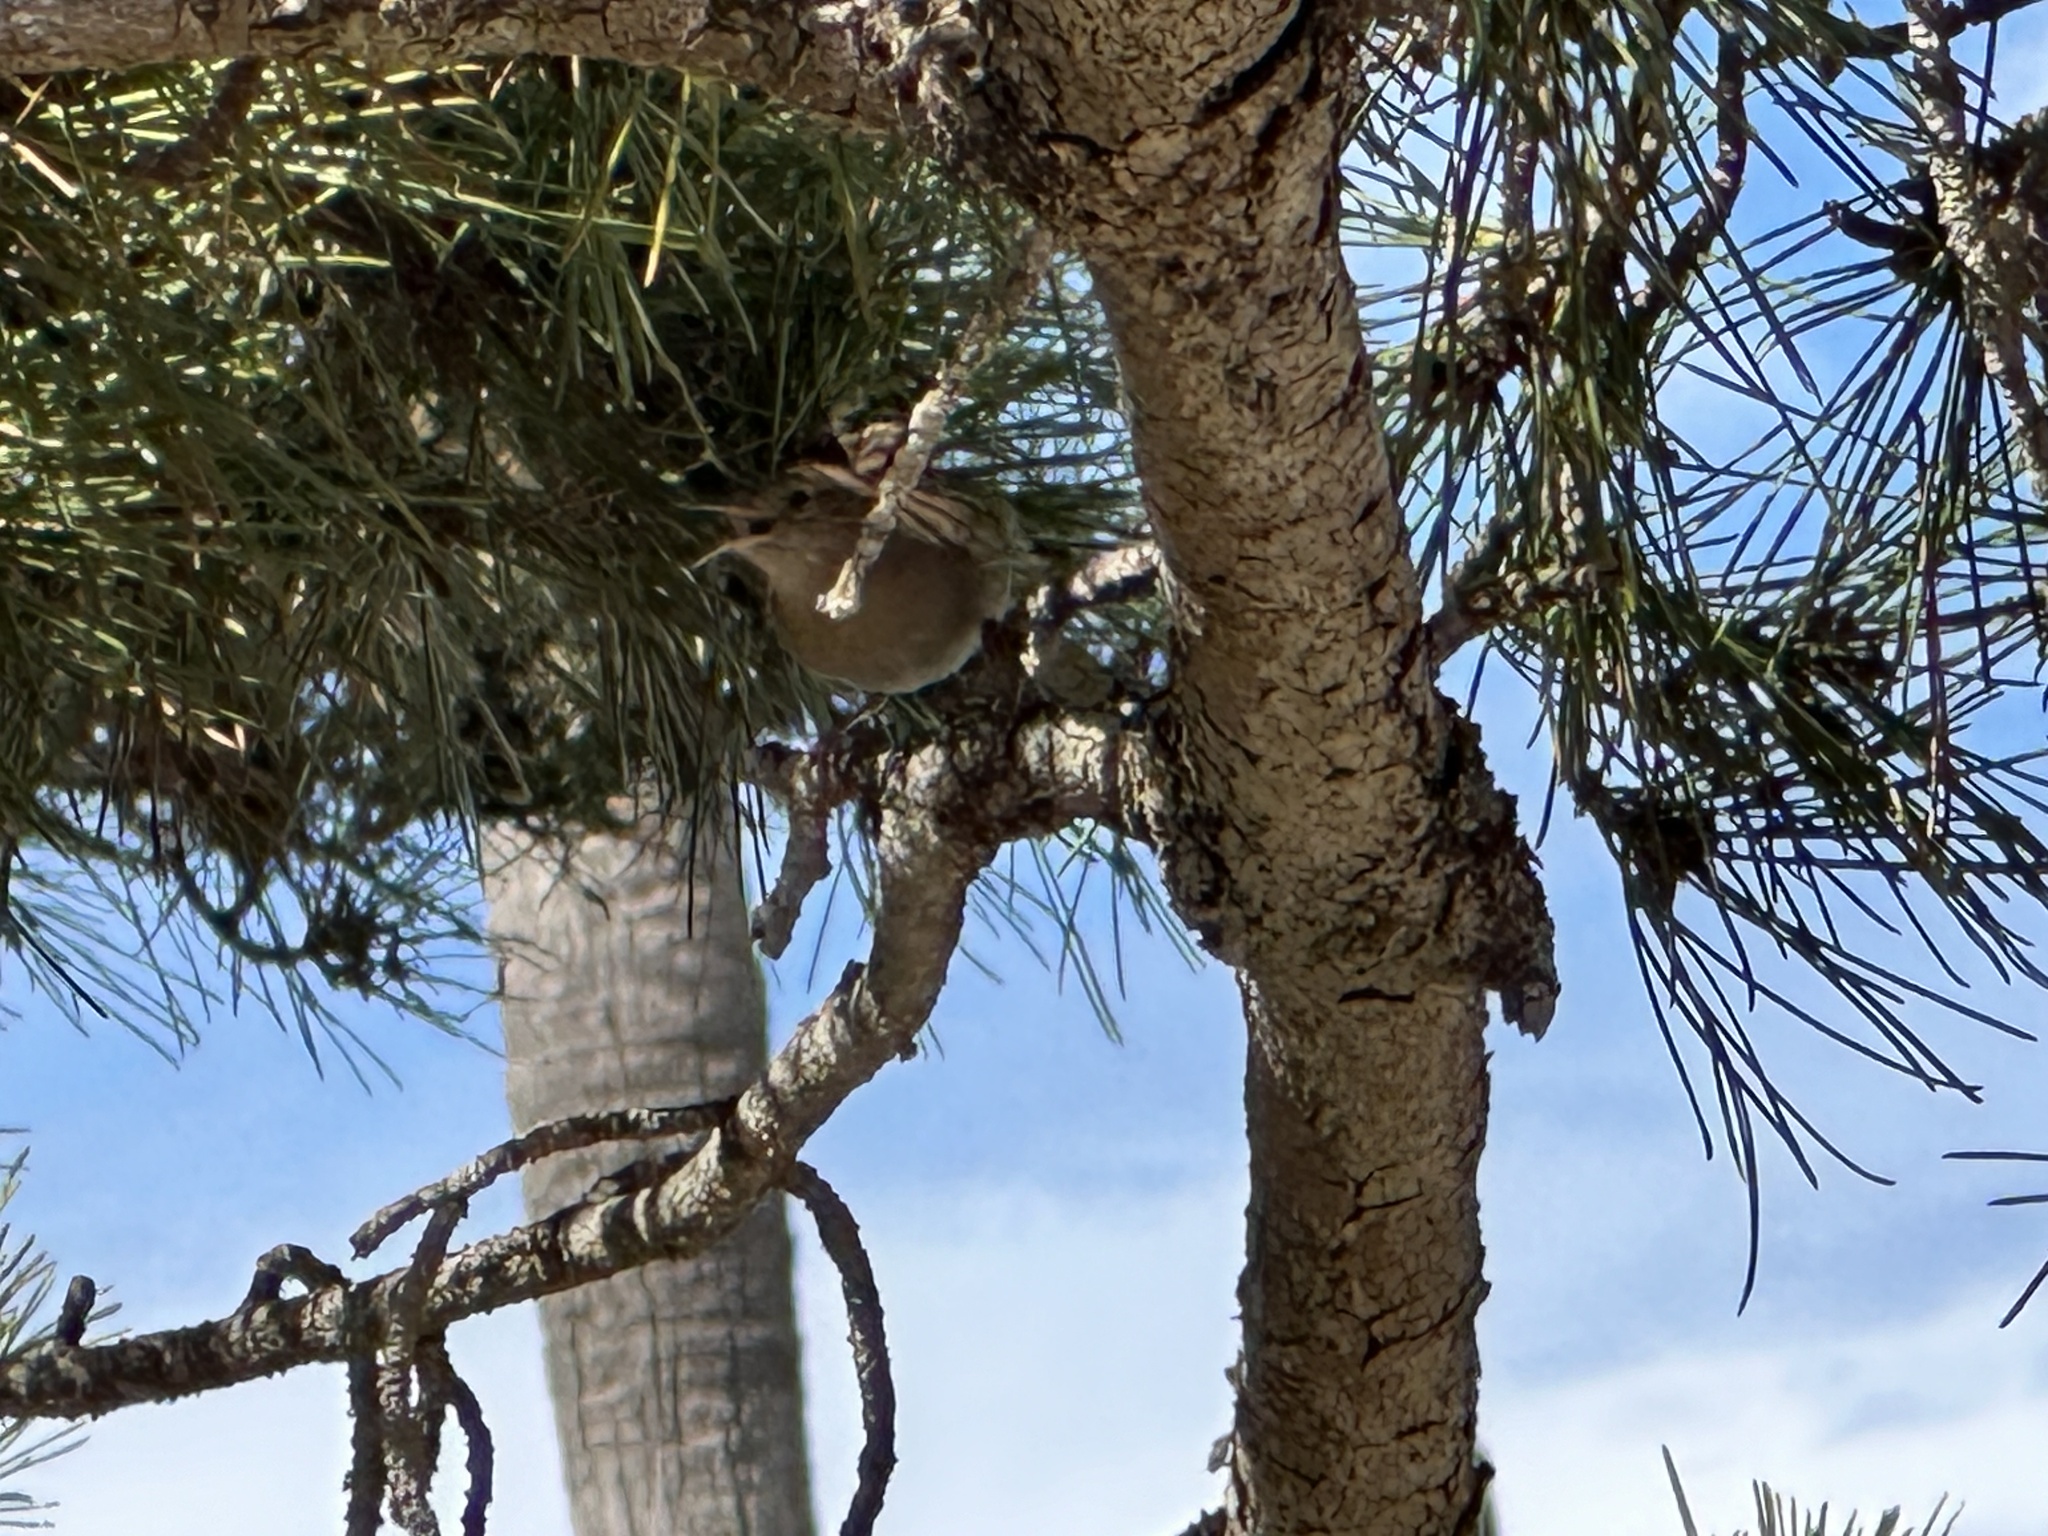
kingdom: Animalia
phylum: Chordata
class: Aves
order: Passeriformes
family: Troglodytidae
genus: Troglodytes
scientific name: Troglodytes aedon
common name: House wren
